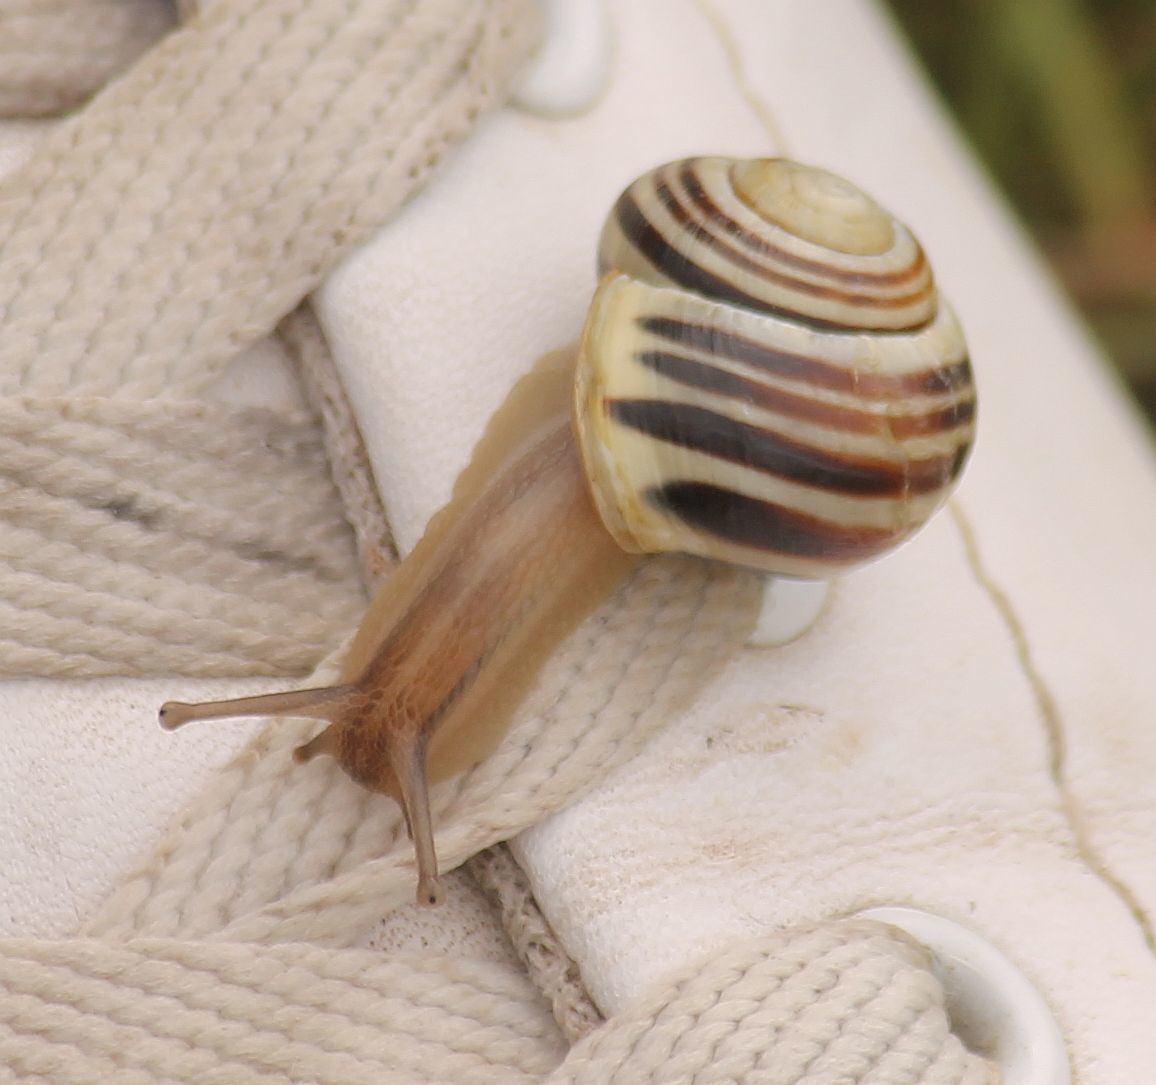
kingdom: Animalia
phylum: Mollusca
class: Gastropoda
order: Stylommatophora
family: Helicidae
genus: Cepaea
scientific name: Cepaea hortensis
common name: White-lip gardensnail
